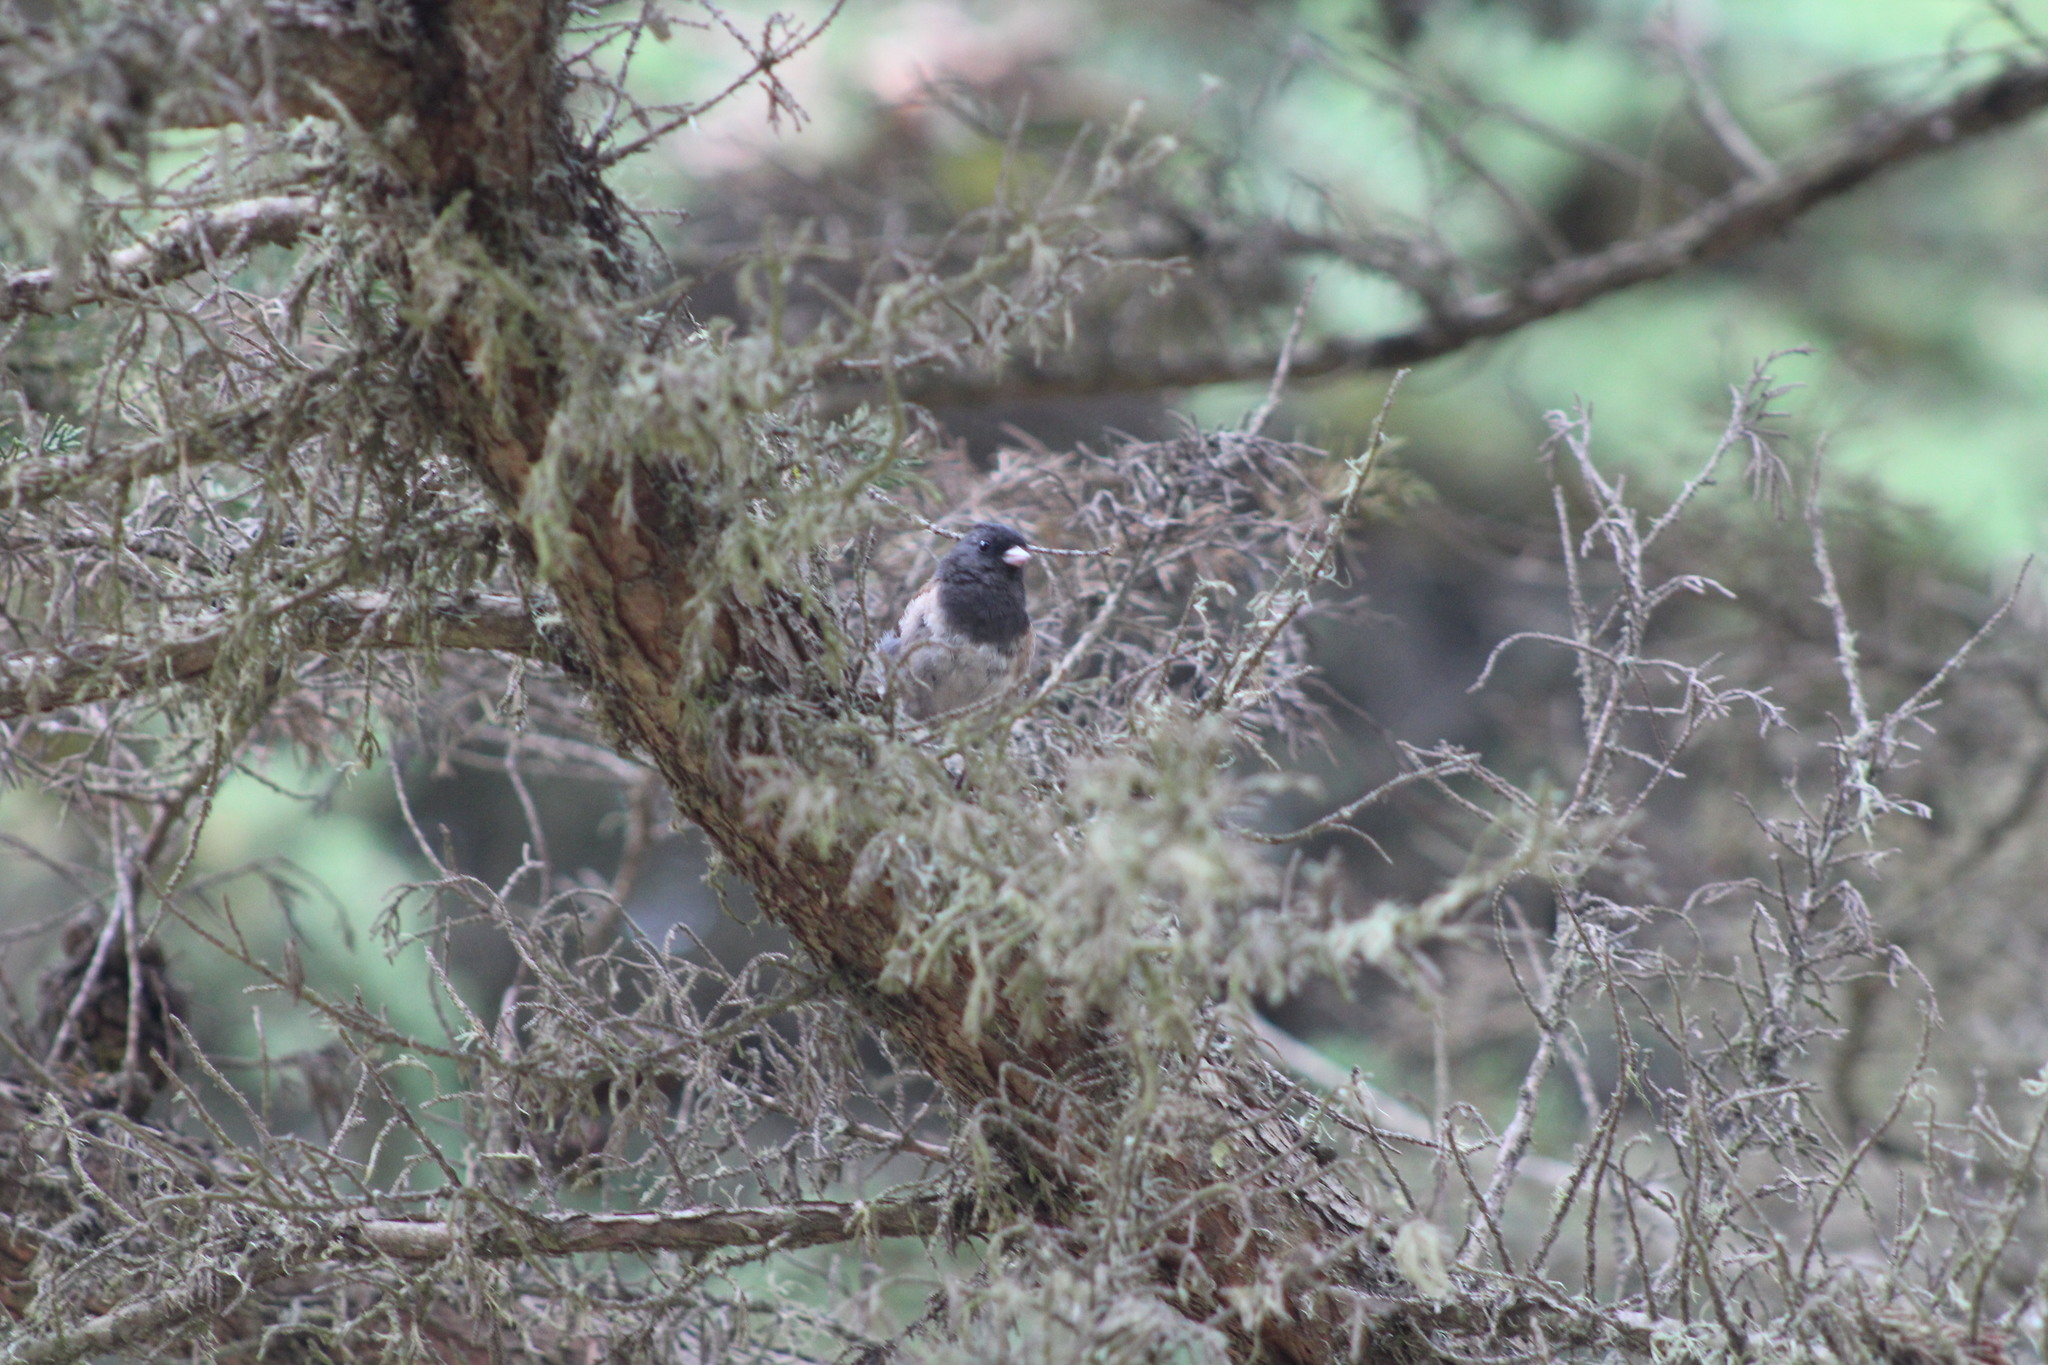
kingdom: Animalia
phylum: Chordata
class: Aves
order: Passeriformes
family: Passerellidae
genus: Junco
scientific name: Junco hyemalis
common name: Dark-eyed junco
